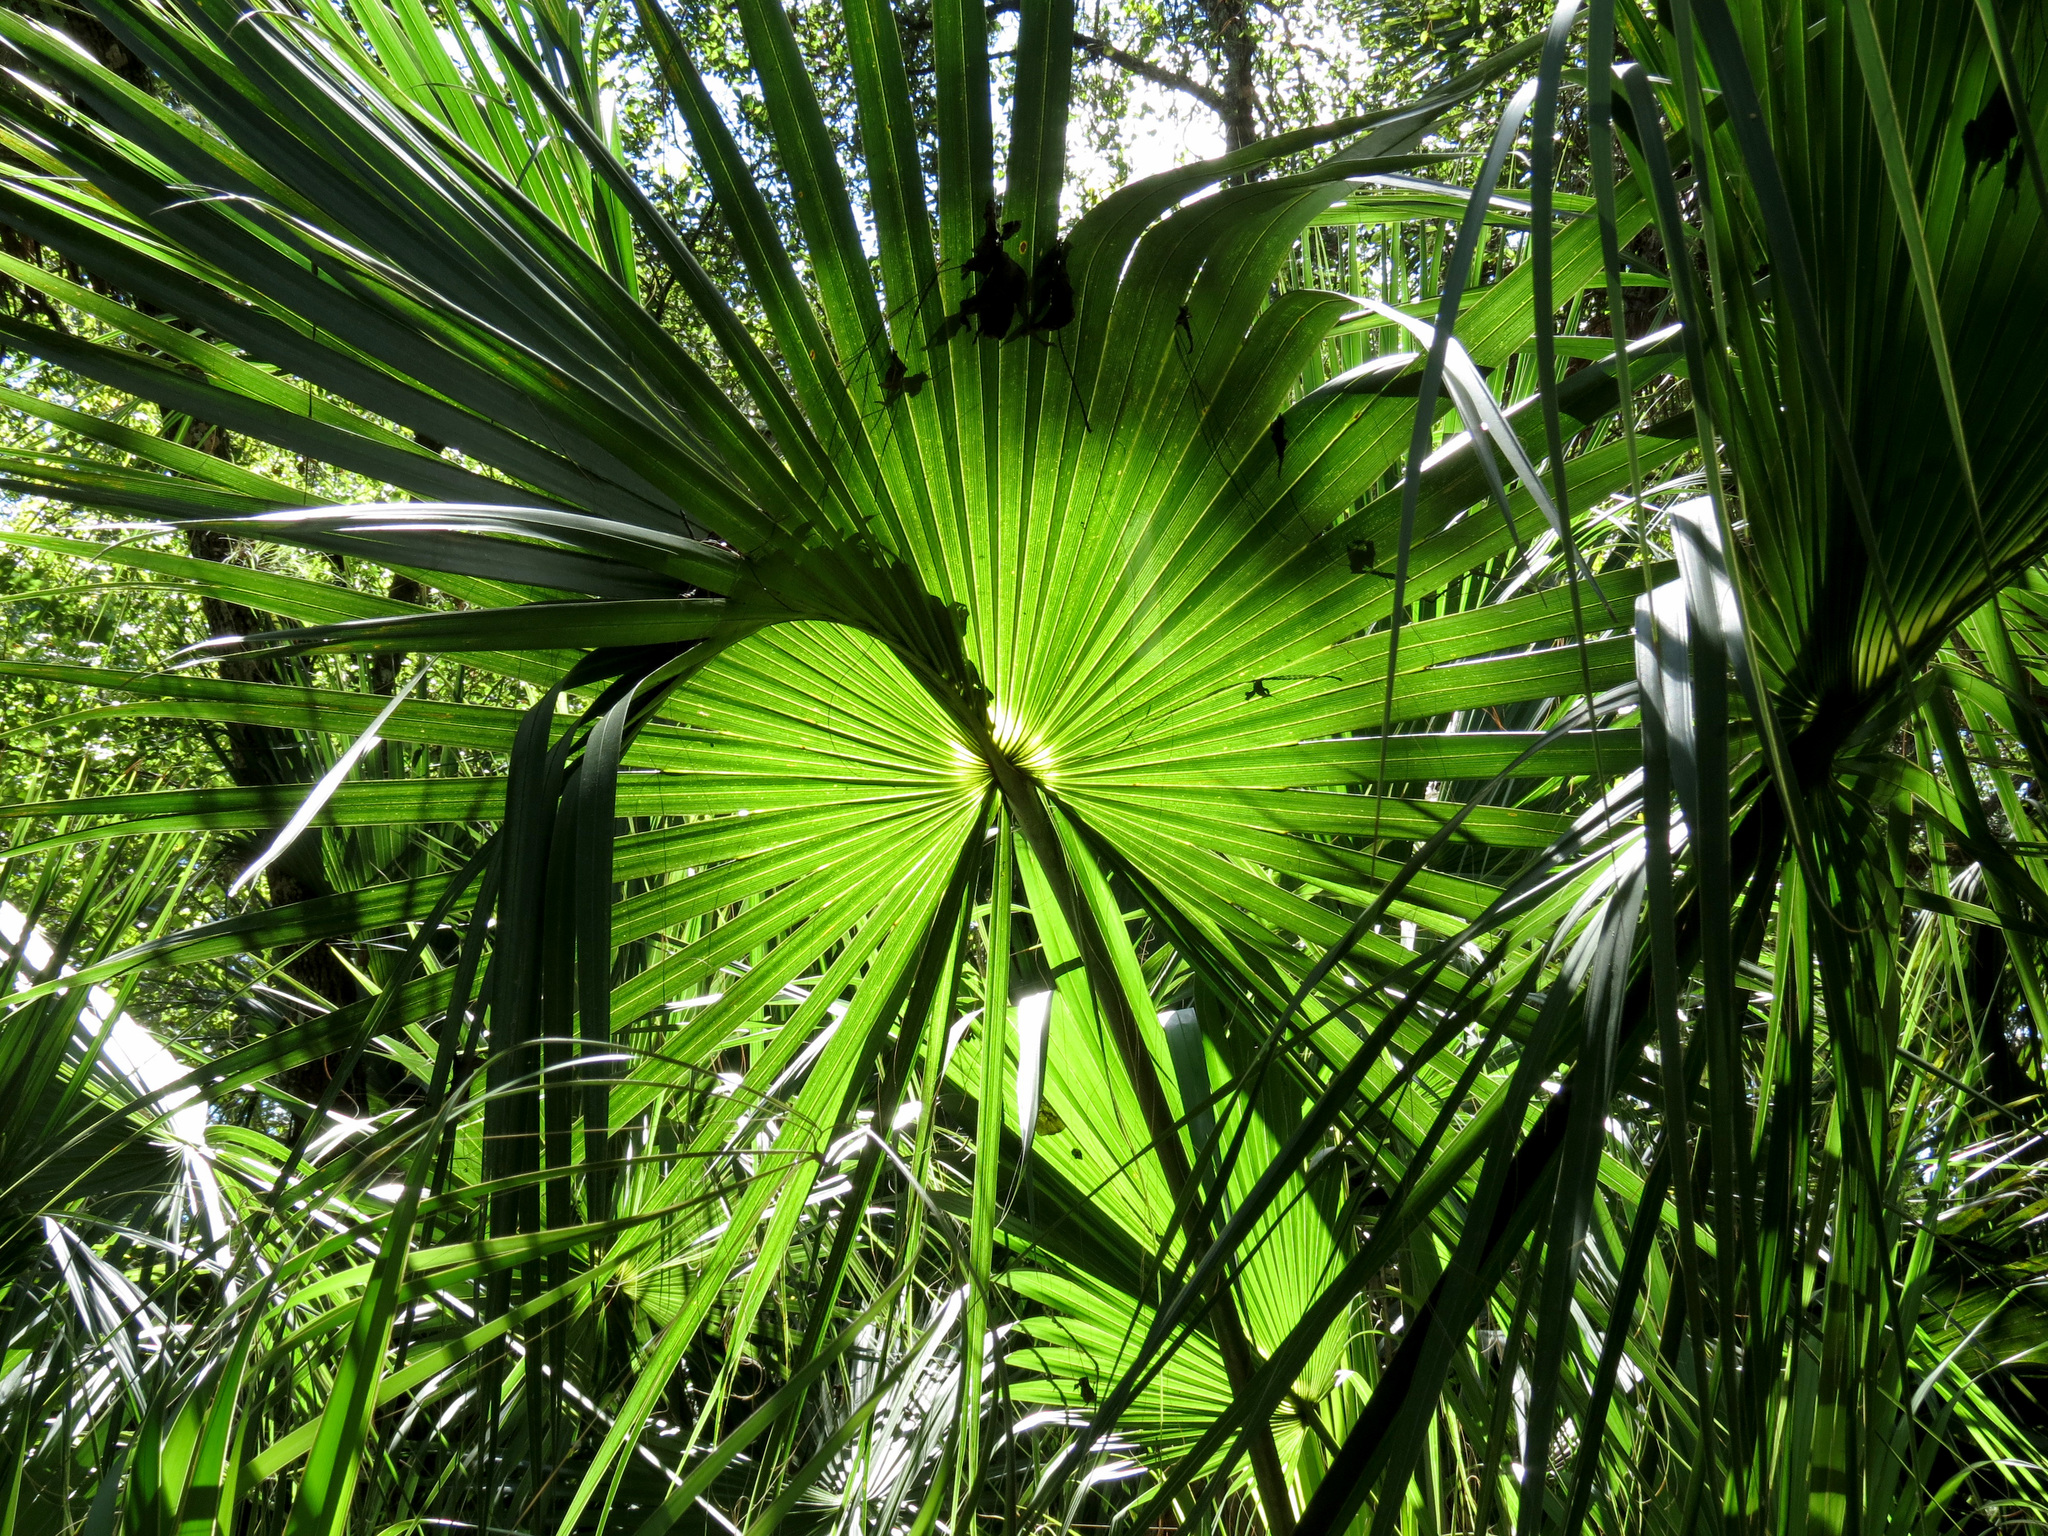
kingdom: Plantae
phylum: Tracheophyta
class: Liliopsida
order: Arecales
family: Arecaceae
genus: Sabal
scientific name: Sabal palmetto
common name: Blue palmetto
